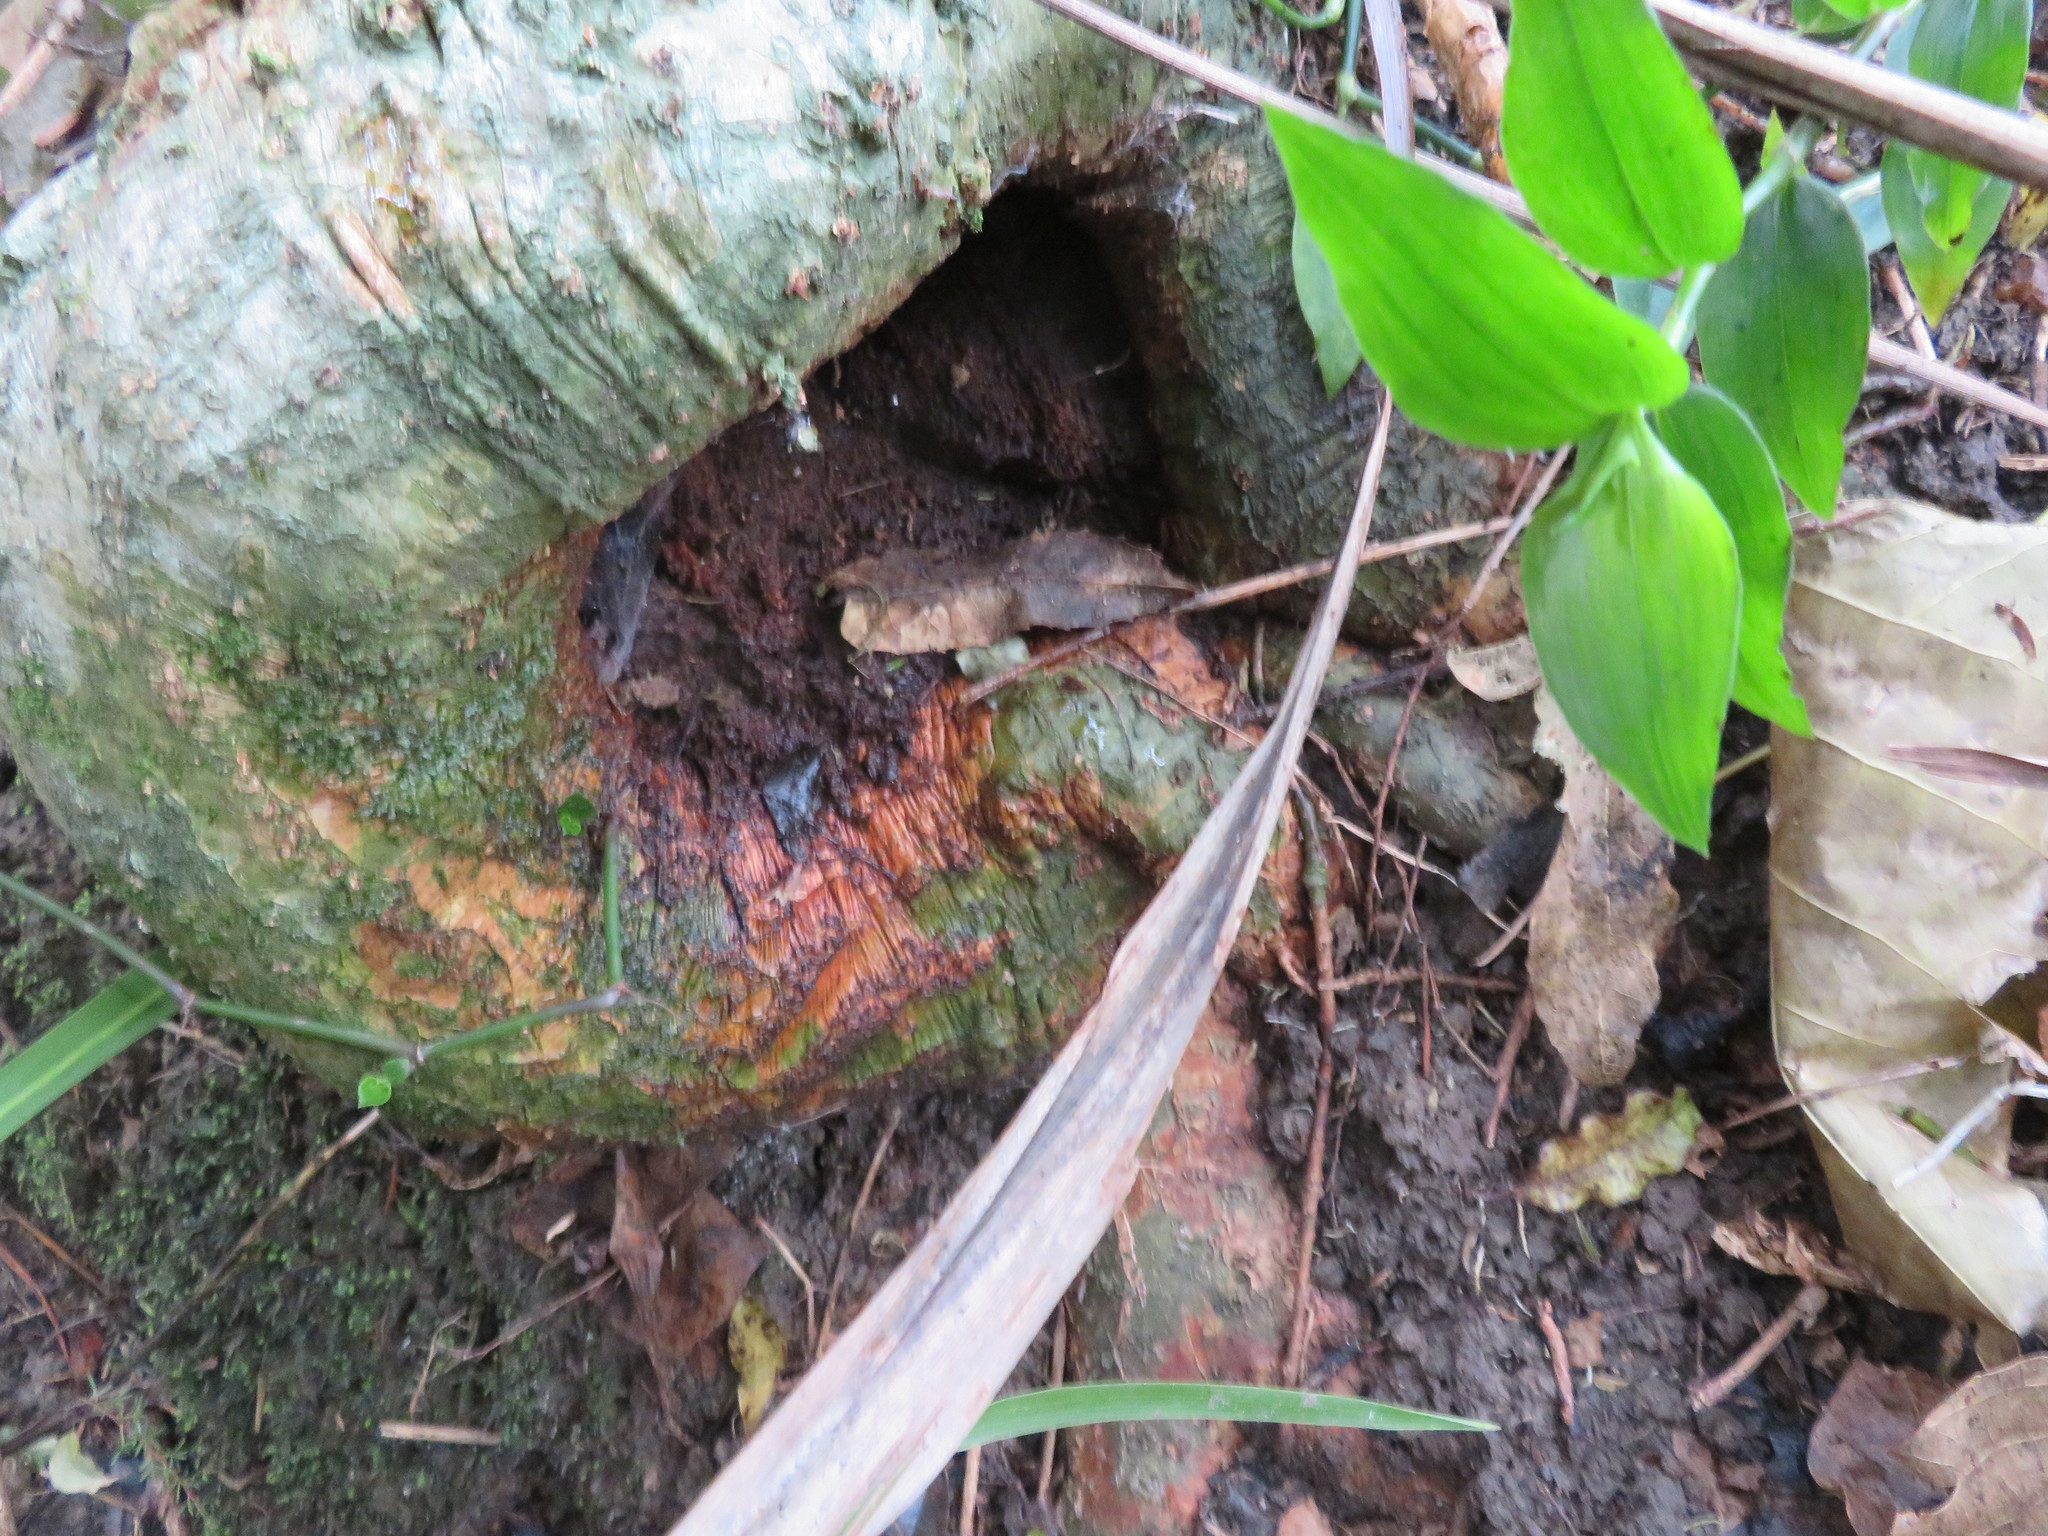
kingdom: Plantae
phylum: Tracheophyta
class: Magnoliopsida
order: Fabales
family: Fabaceae
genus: Erythrina
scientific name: Erythrina sykesii
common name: Coraltree
